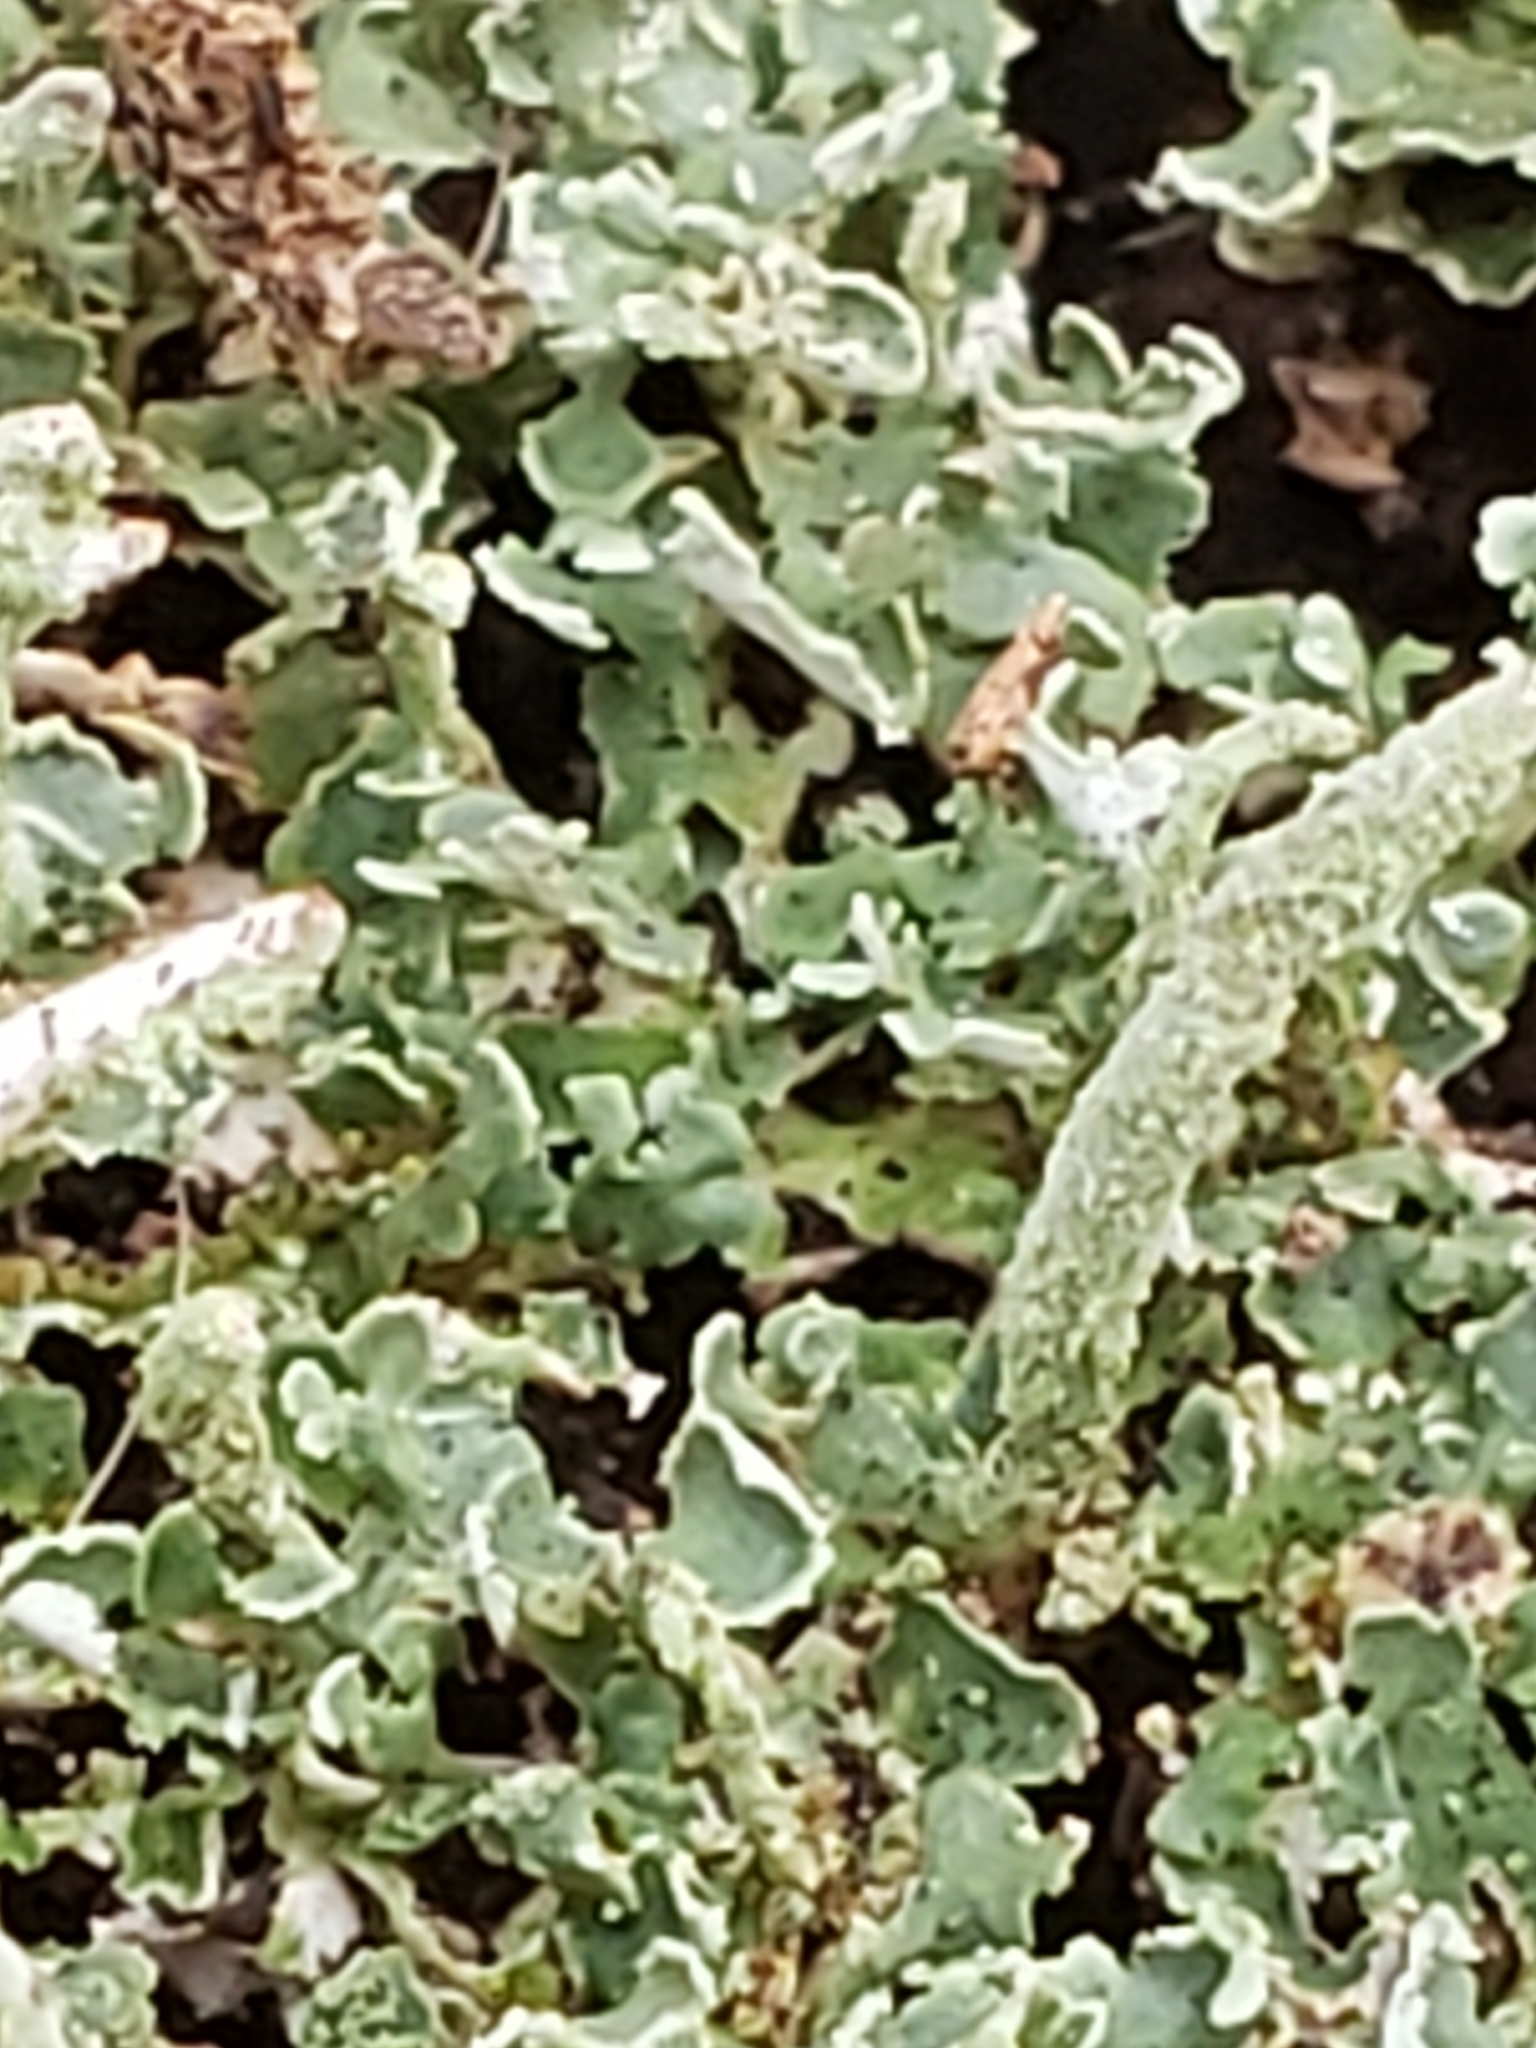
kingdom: Fungi
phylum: Ascomycota
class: Lecanoromycetes
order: Lecanorales
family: Cladoniaceae
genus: Cladonia
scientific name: Cladonia coniocraea
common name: Common powderhorn
